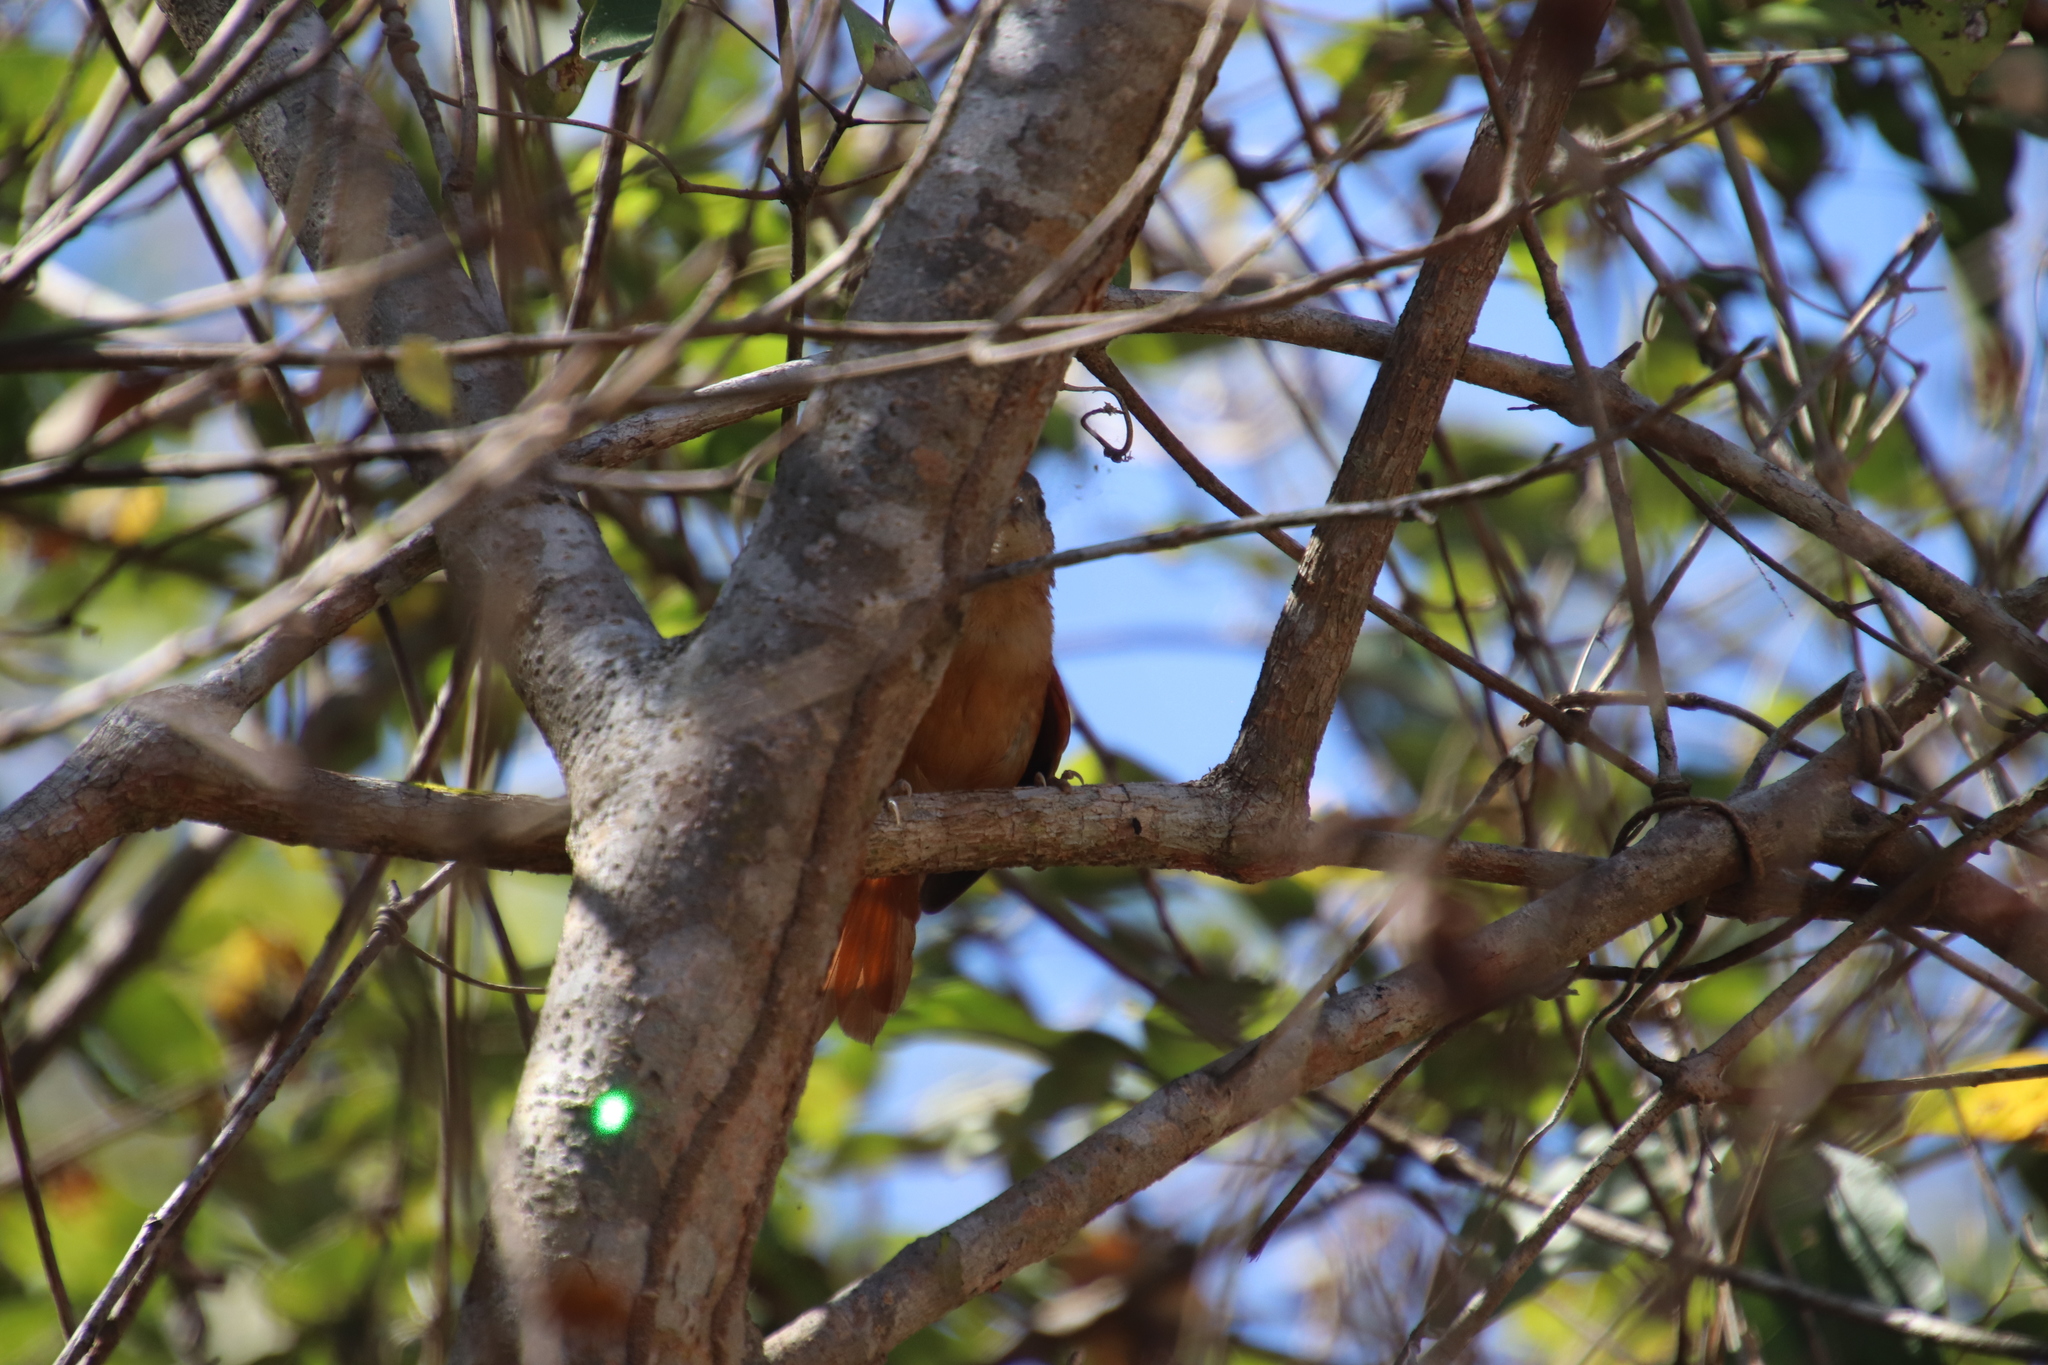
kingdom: Animalia
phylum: Chordata
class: Aves
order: Passeriformes
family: Furnariidae
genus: Synallaxis
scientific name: Synallaxis albilora
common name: White-lored spinetail
